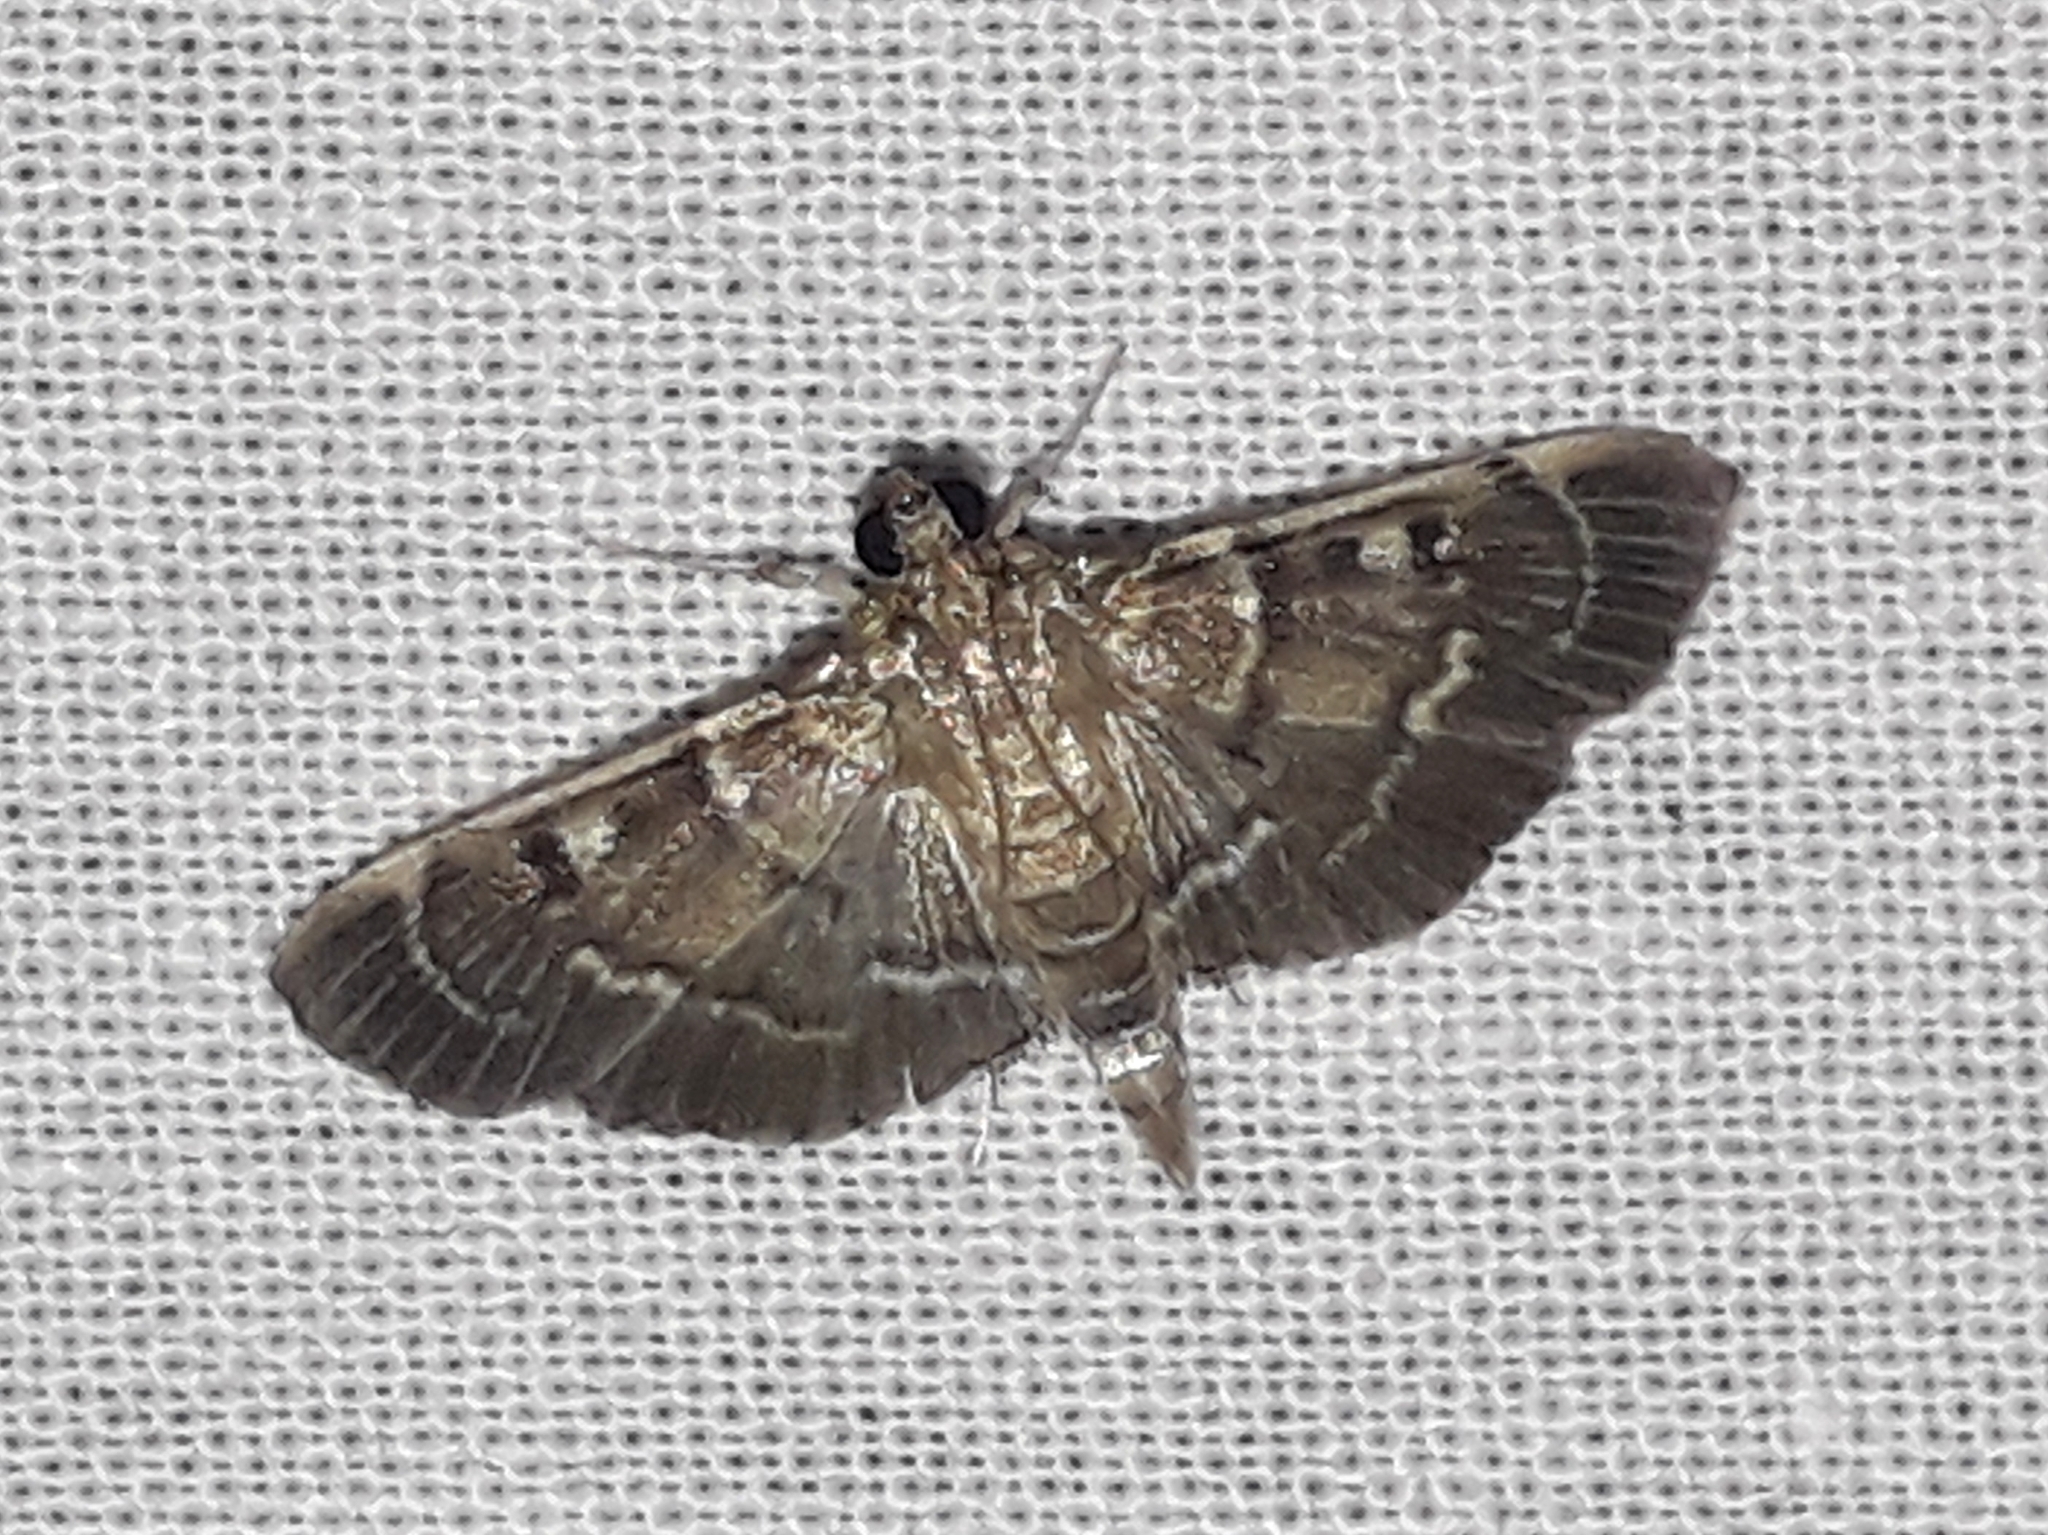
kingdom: Animalia
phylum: Arthropoda
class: Insecta
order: Lepidoptera
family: Crambidae
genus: Cryptobotys
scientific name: Cryptobotys zoilusalis
